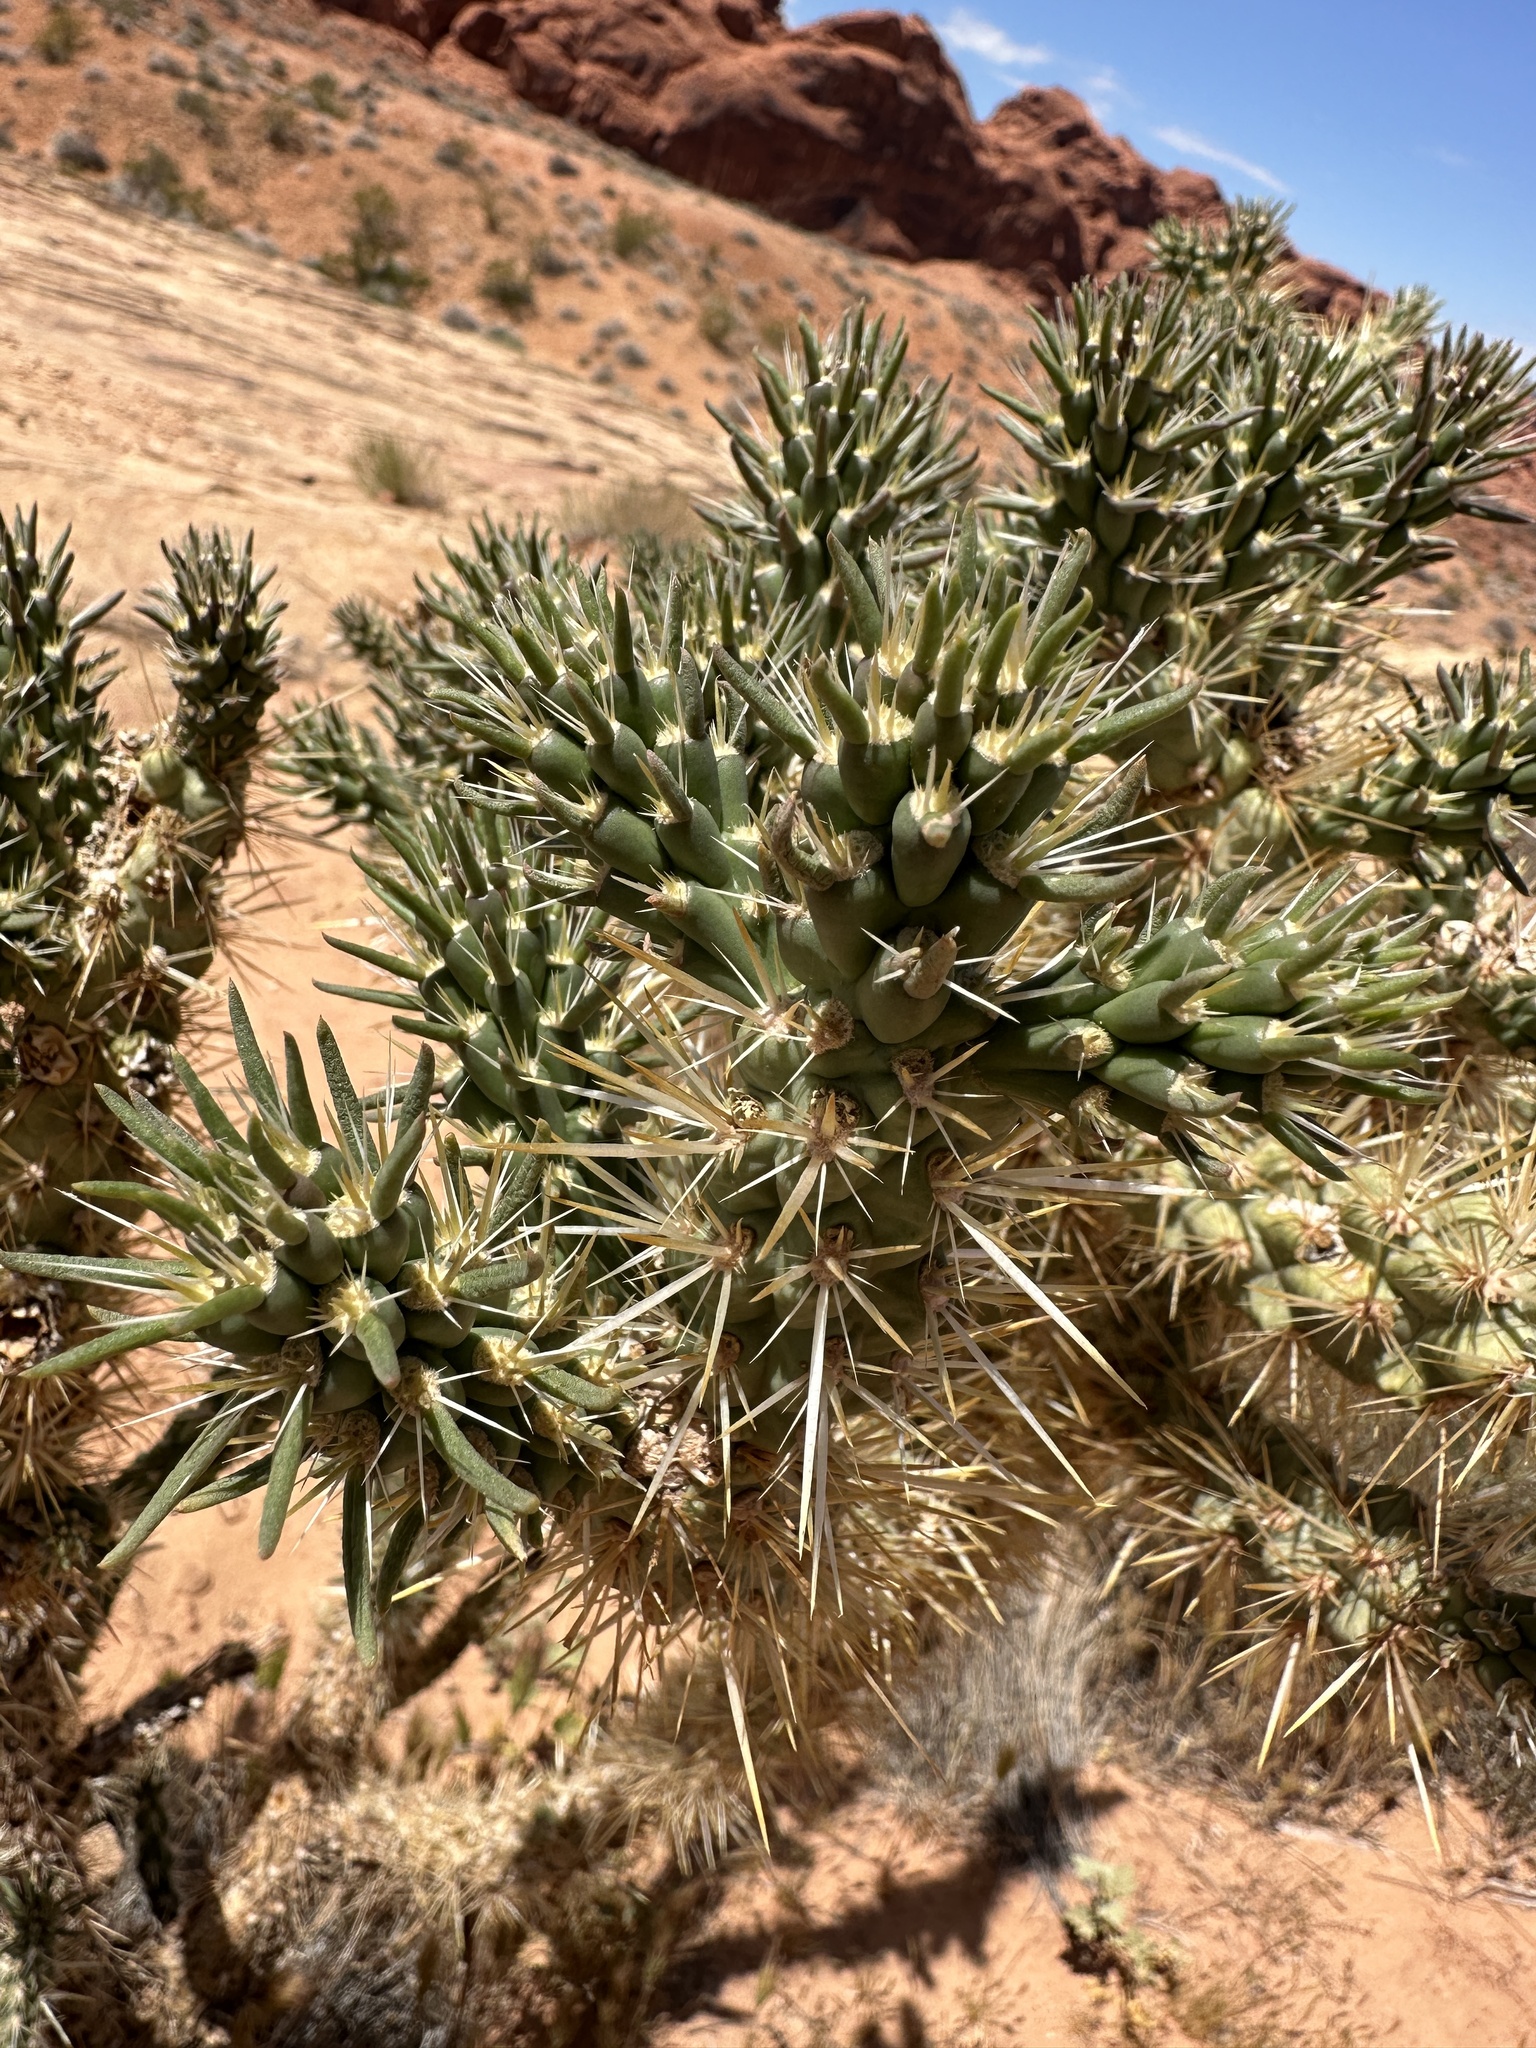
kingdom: Plantae
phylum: Tracheophyta
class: Magnoliopsida
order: Caryophyllales
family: Cactaceae
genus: Cylindropuntia
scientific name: Cylindropuntia echinocarpa
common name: Ground cholla
